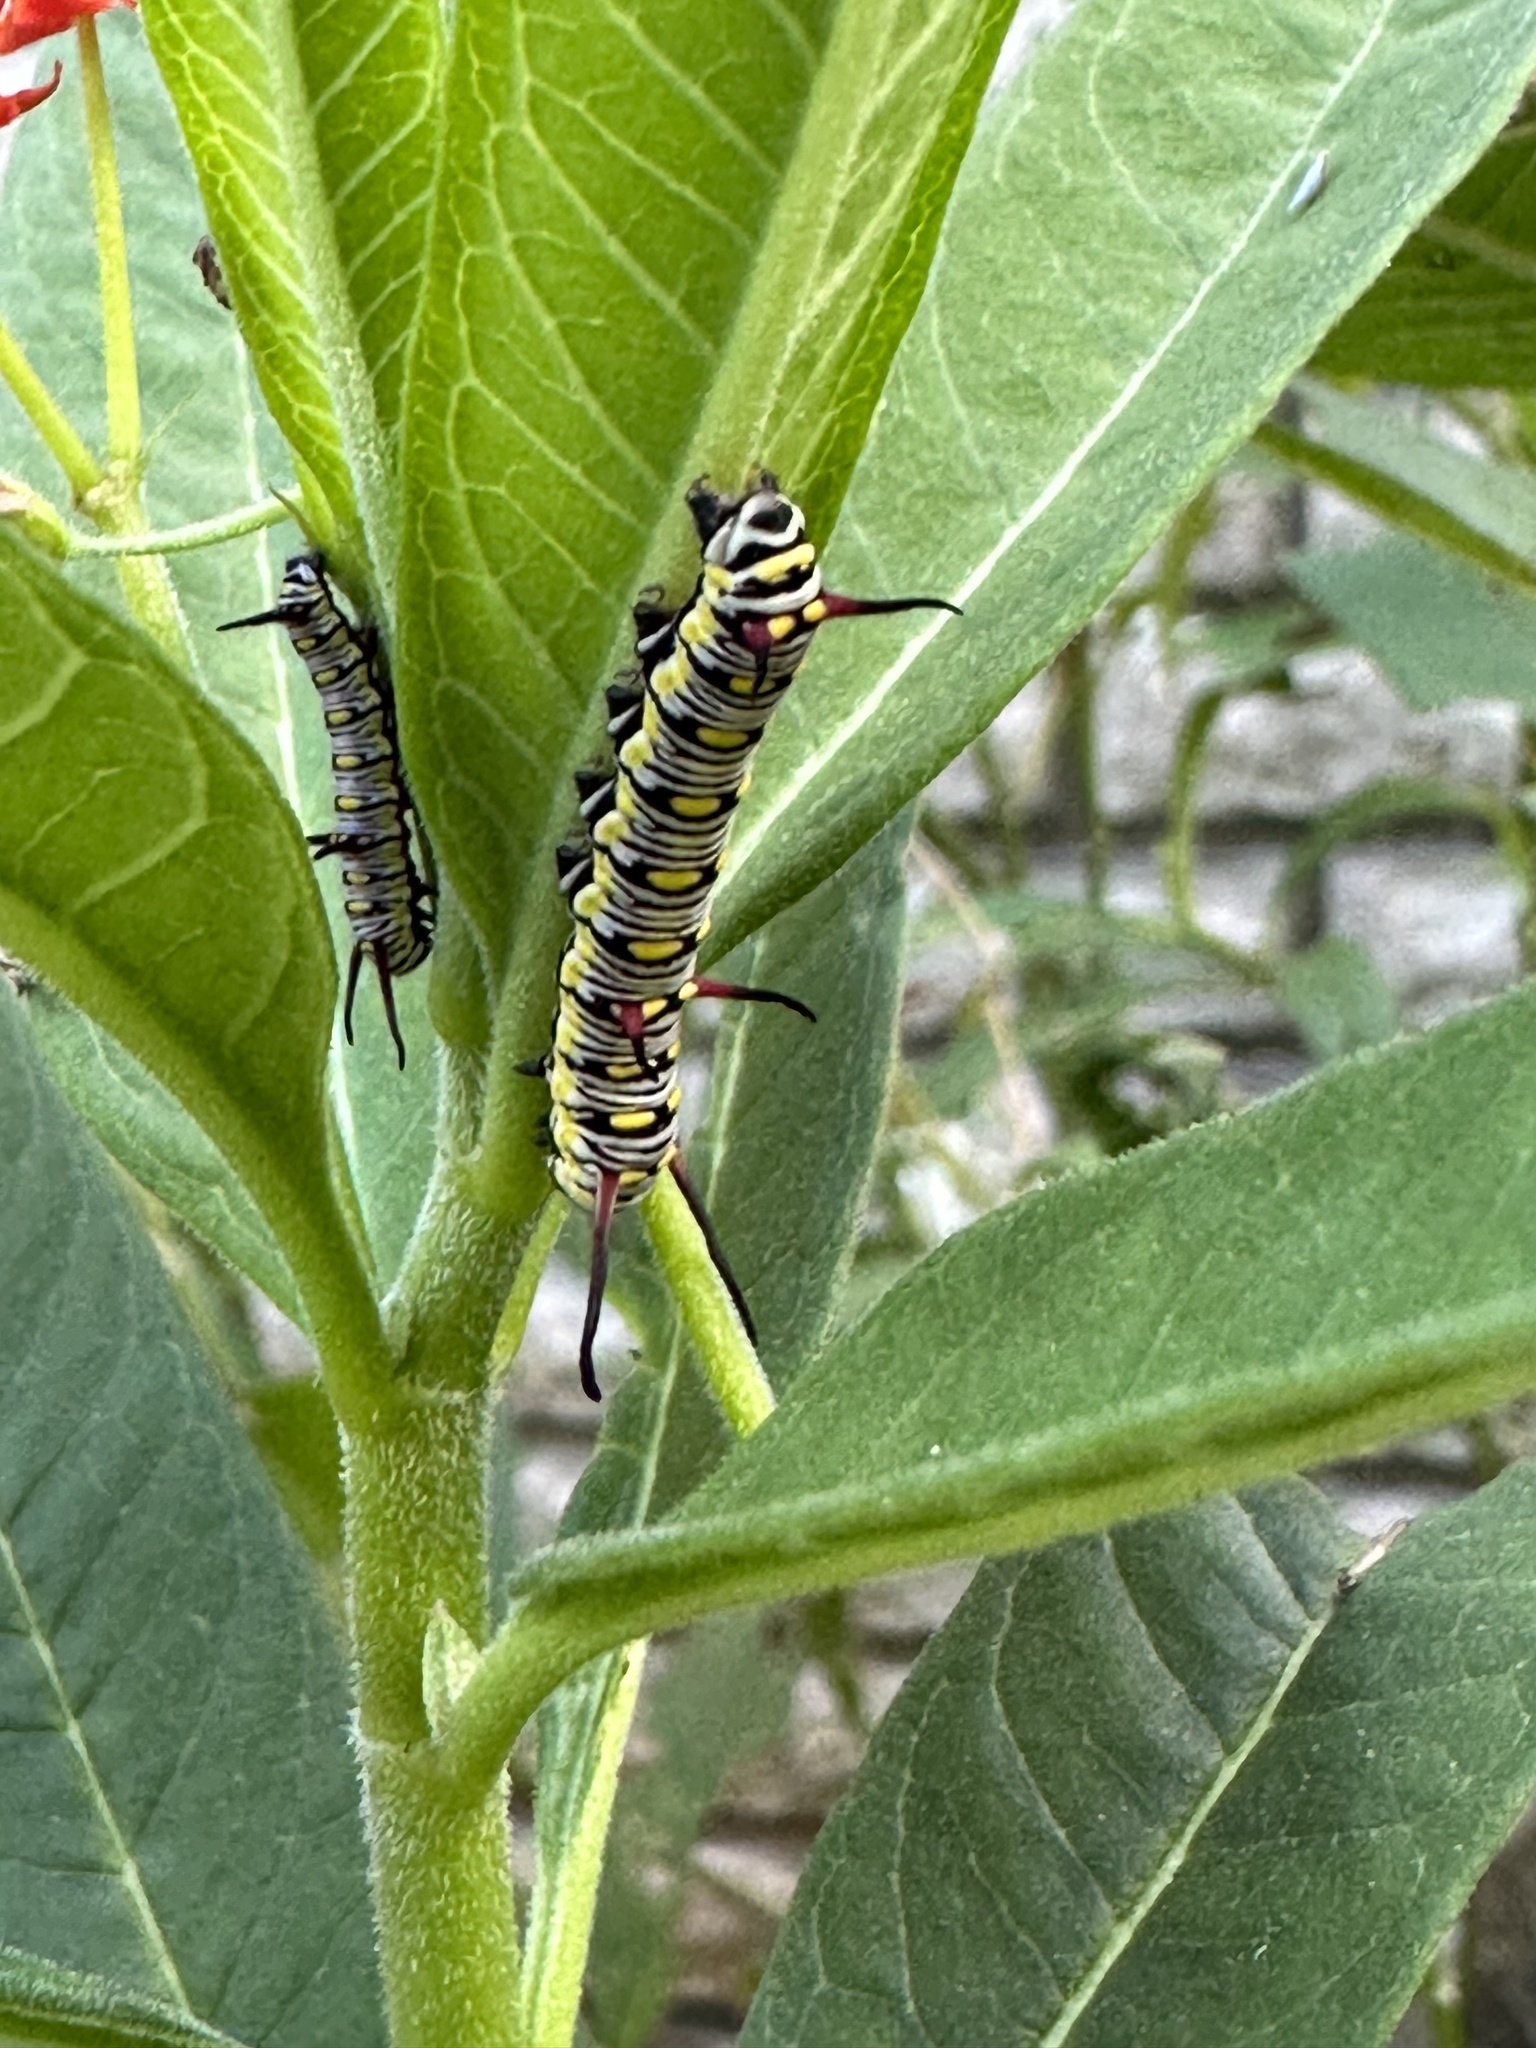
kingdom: Animalia
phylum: Arthropoda
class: Insecta
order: Lepidoptera
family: Nymphalidae
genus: Danaus
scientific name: Danaus chrysippus
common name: Plain tiger
